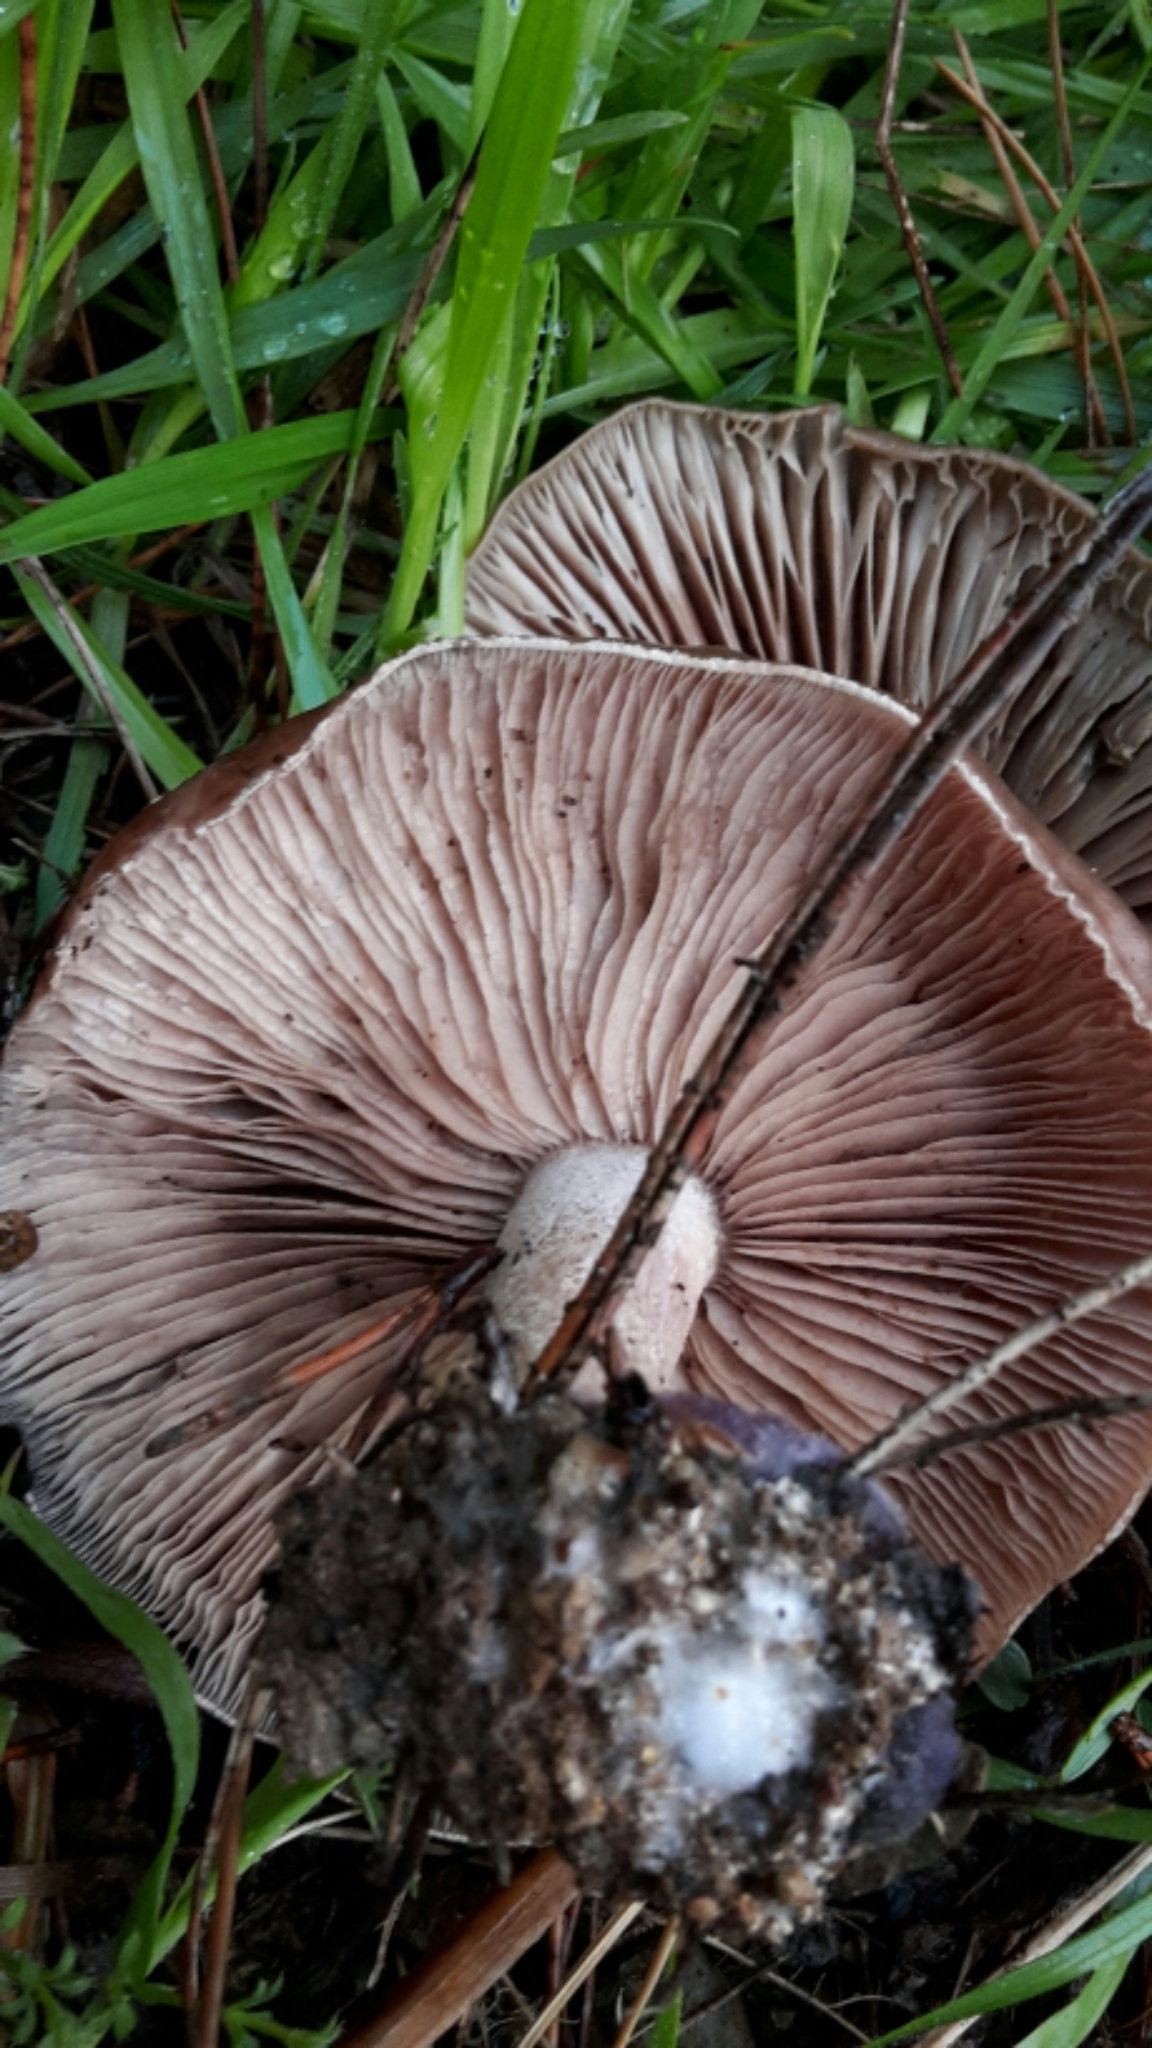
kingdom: Fungi
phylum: Basidiomycota
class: Agaricomycetes
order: Agaricales
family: Tricholomataceae
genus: Collybia
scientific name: Collybia
